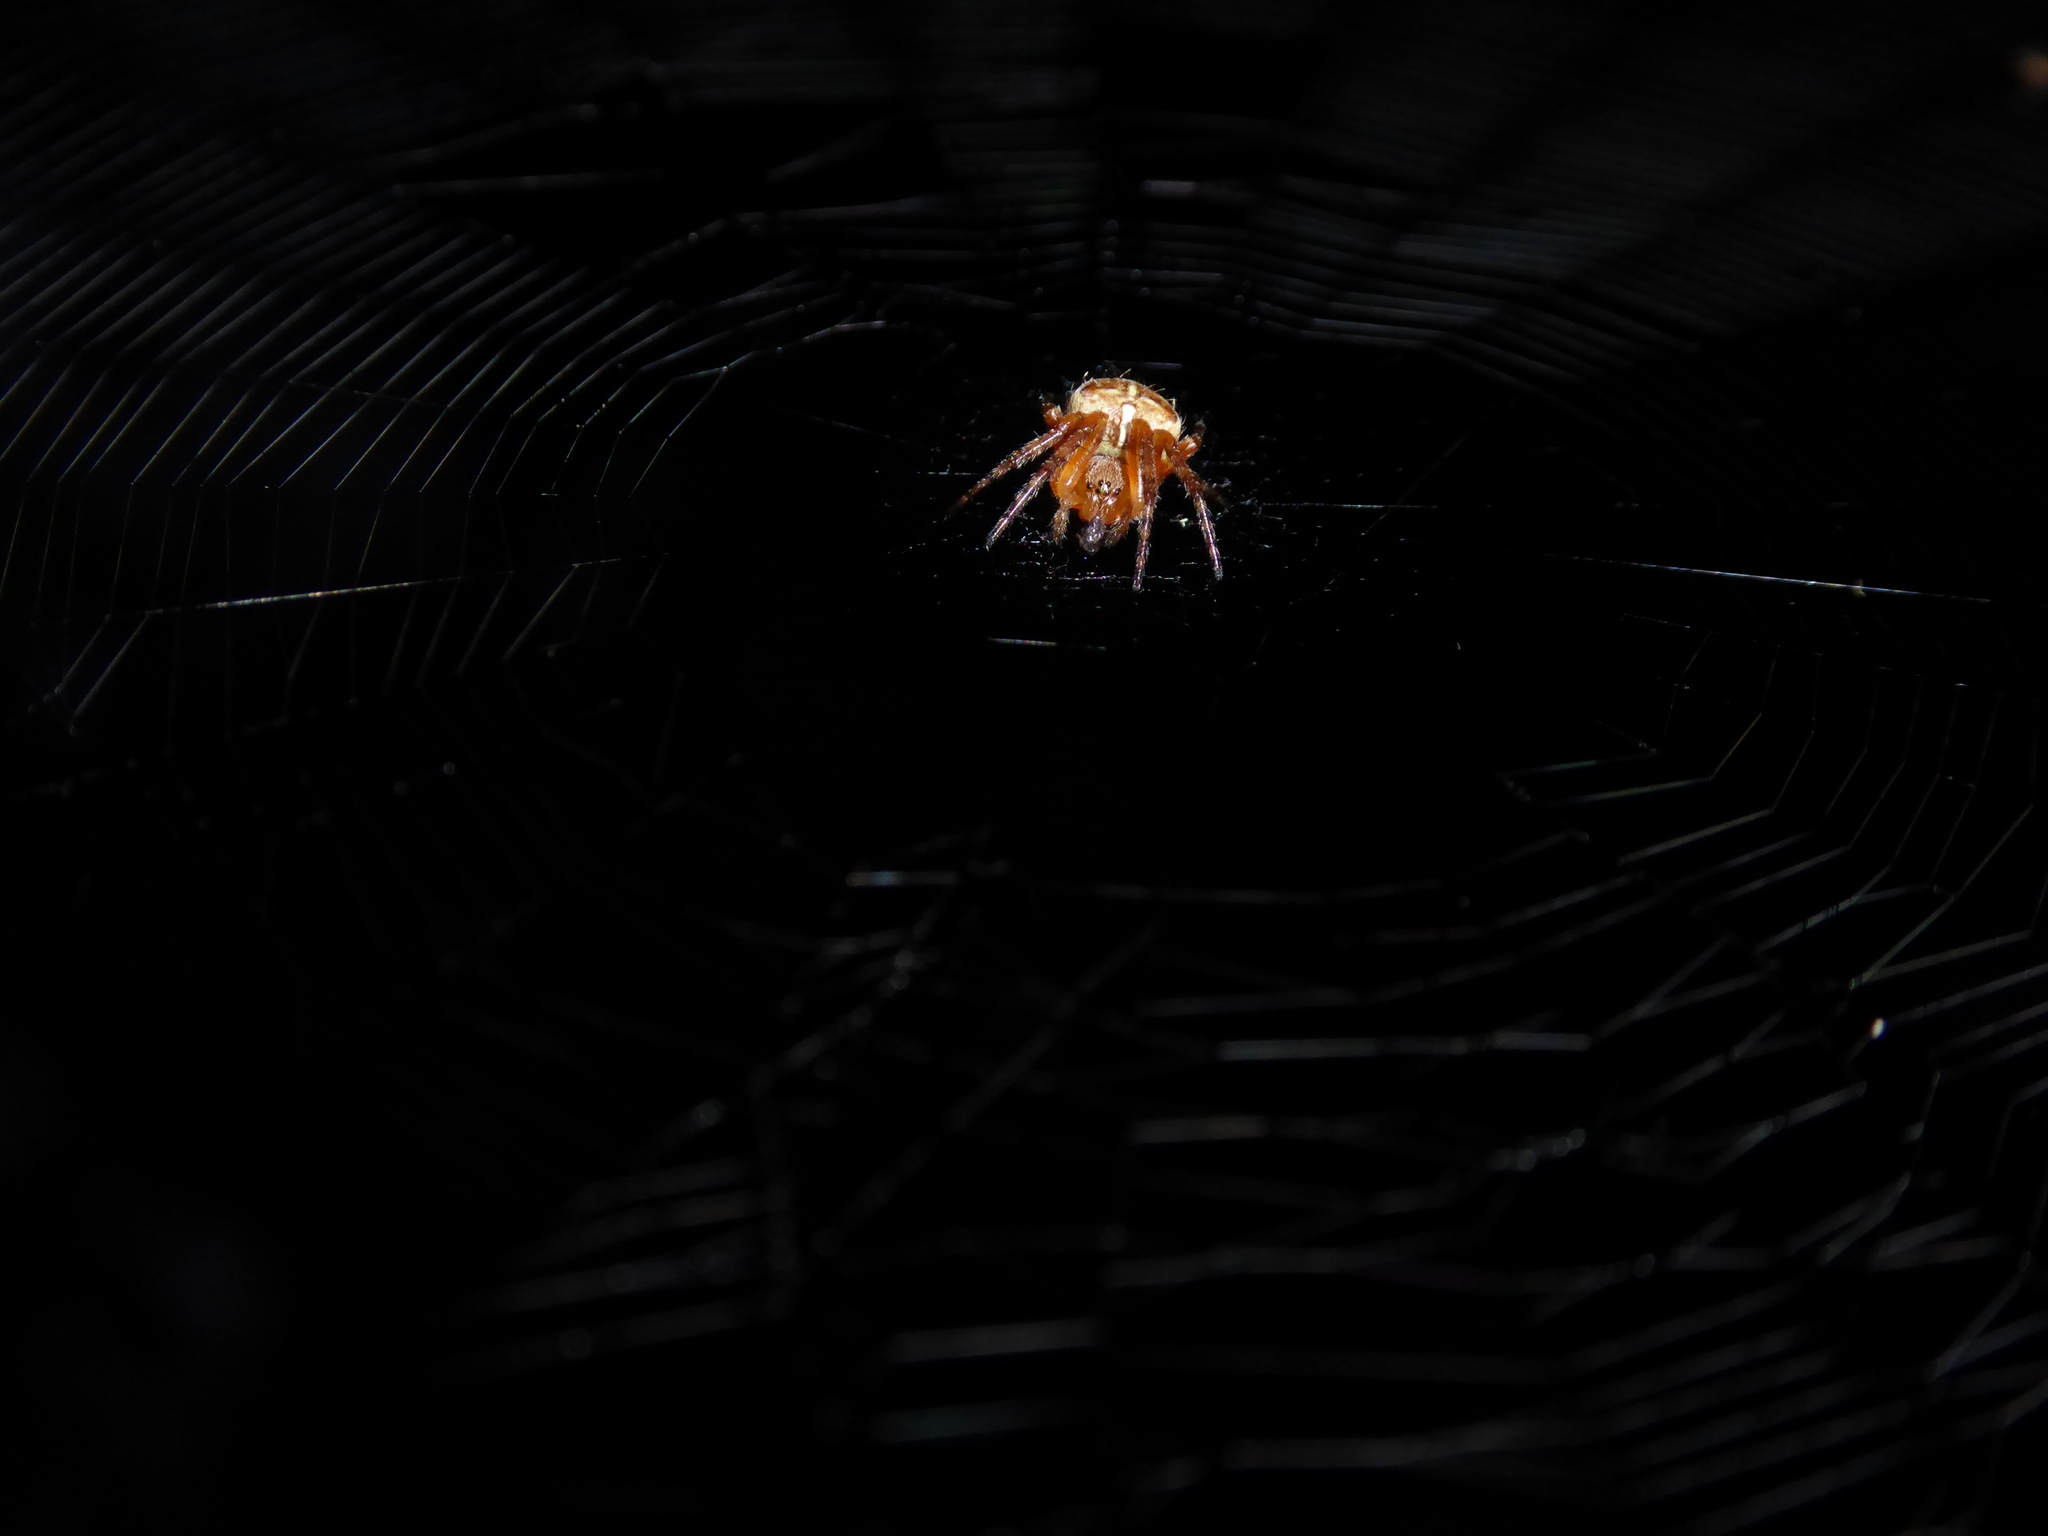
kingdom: Animalia
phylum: Arthropoda
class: Arachnida
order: Araneae
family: Araneidae
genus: Araneus
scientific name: Araneus diadematus
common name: Cross orbweaver
